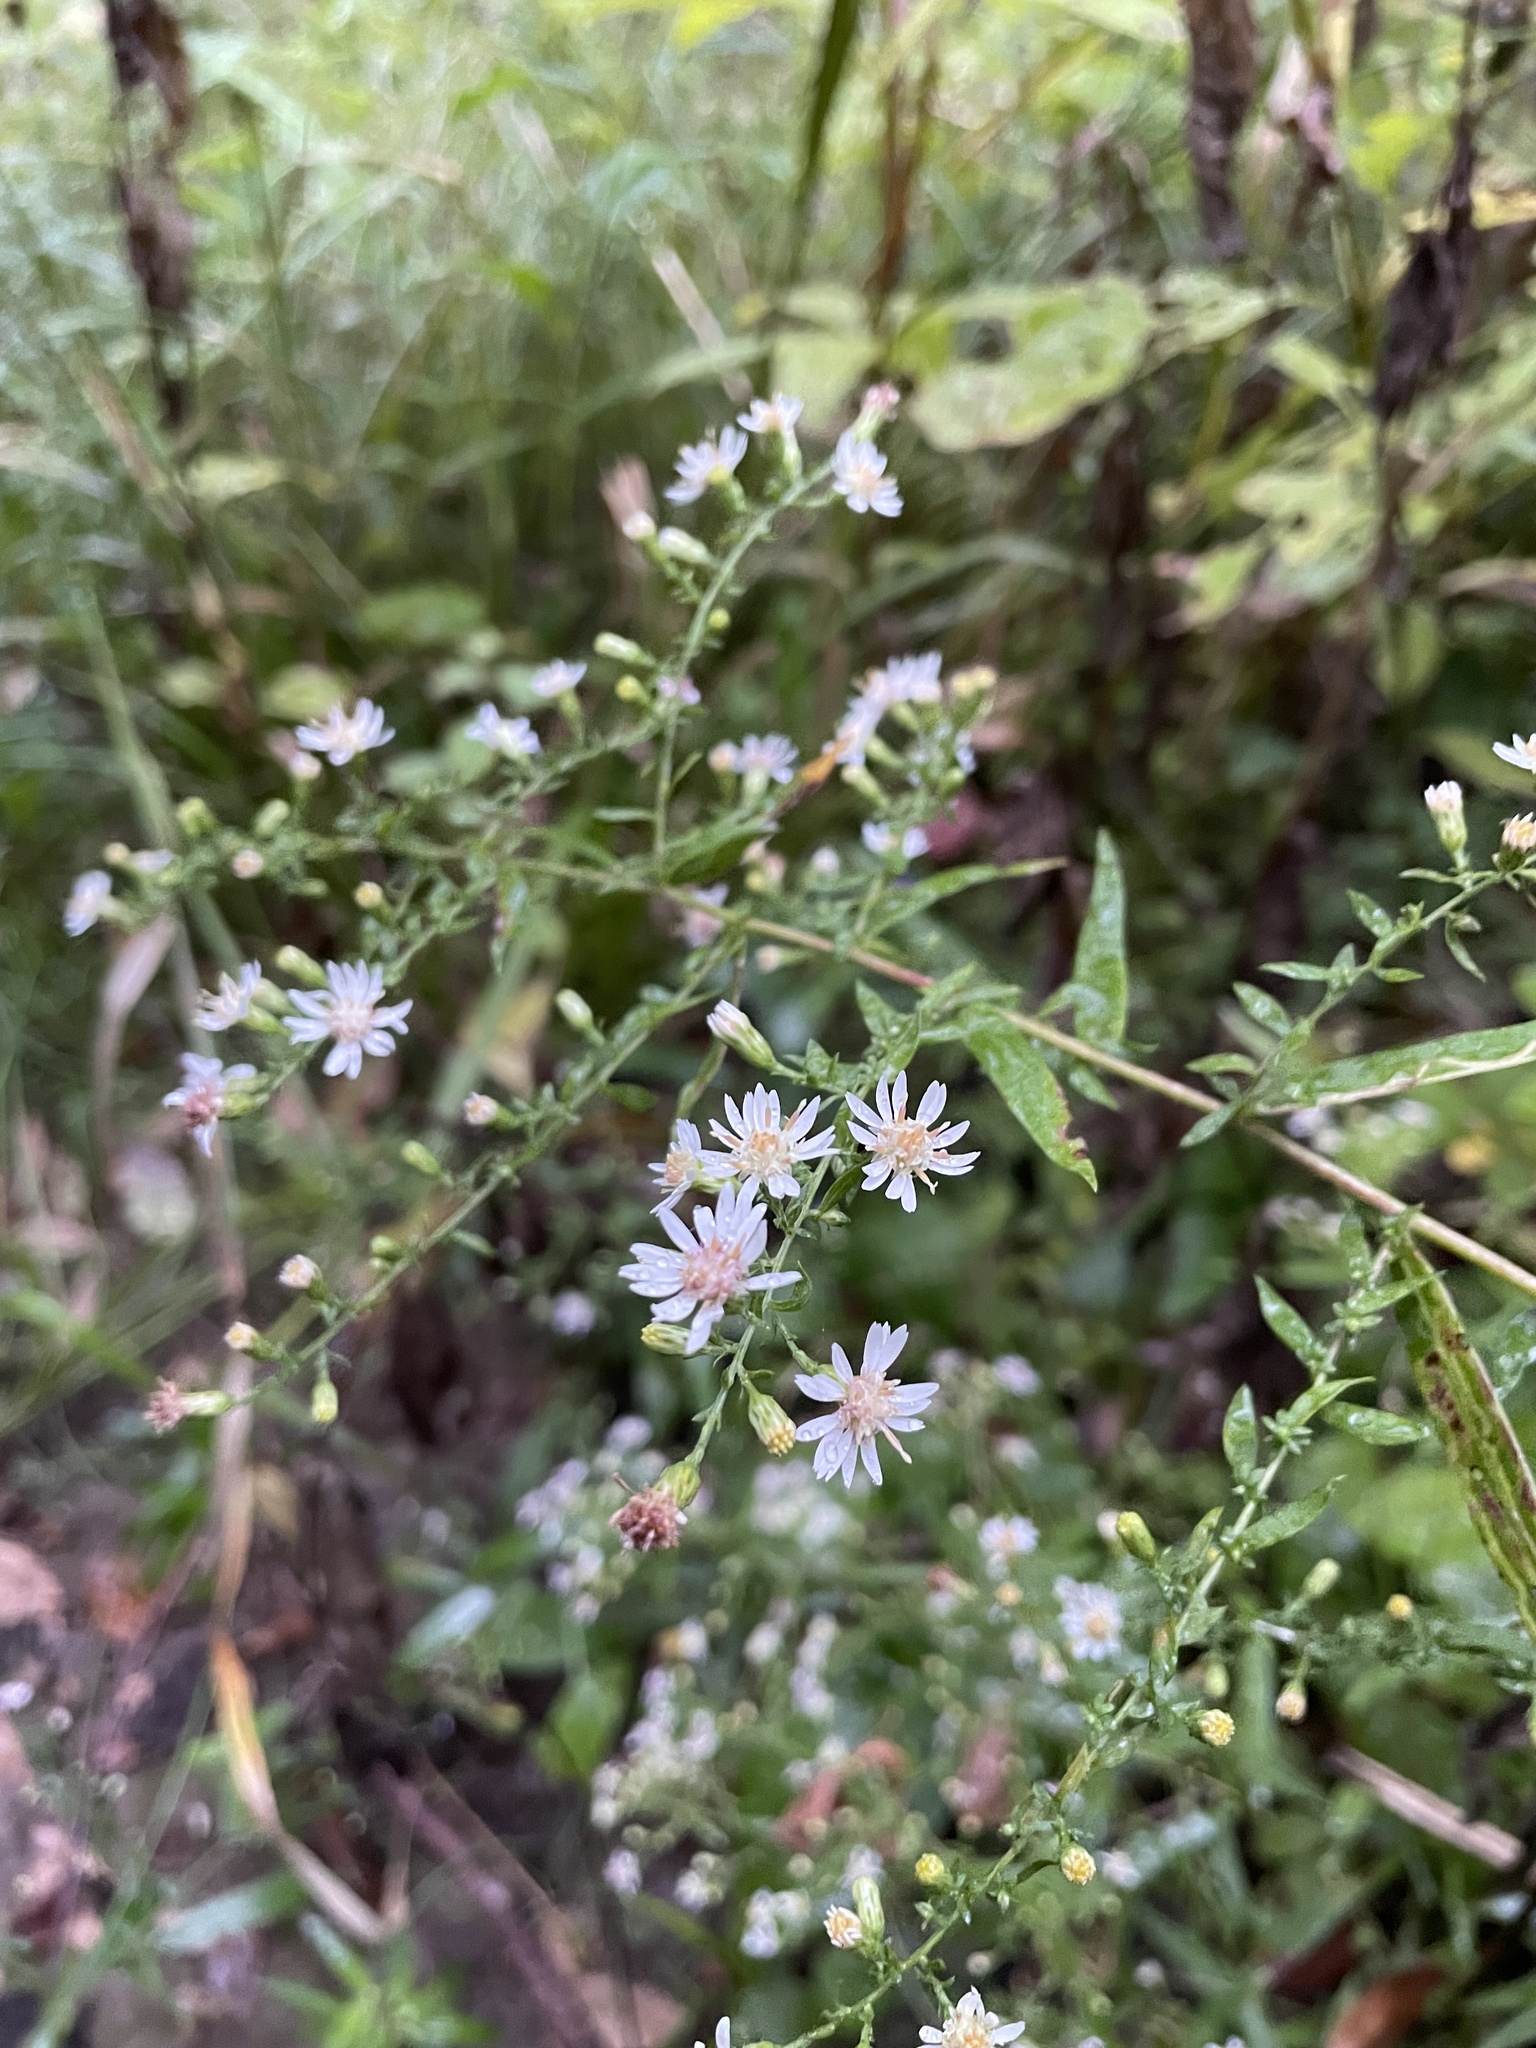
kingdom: Plantae
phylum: Tracheophyta
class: Magnoliopsida
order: Asterales
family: Asteraceae
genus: Symphyotrichum
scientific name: Symphyotrichum lateriflorum
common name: Calico aster
